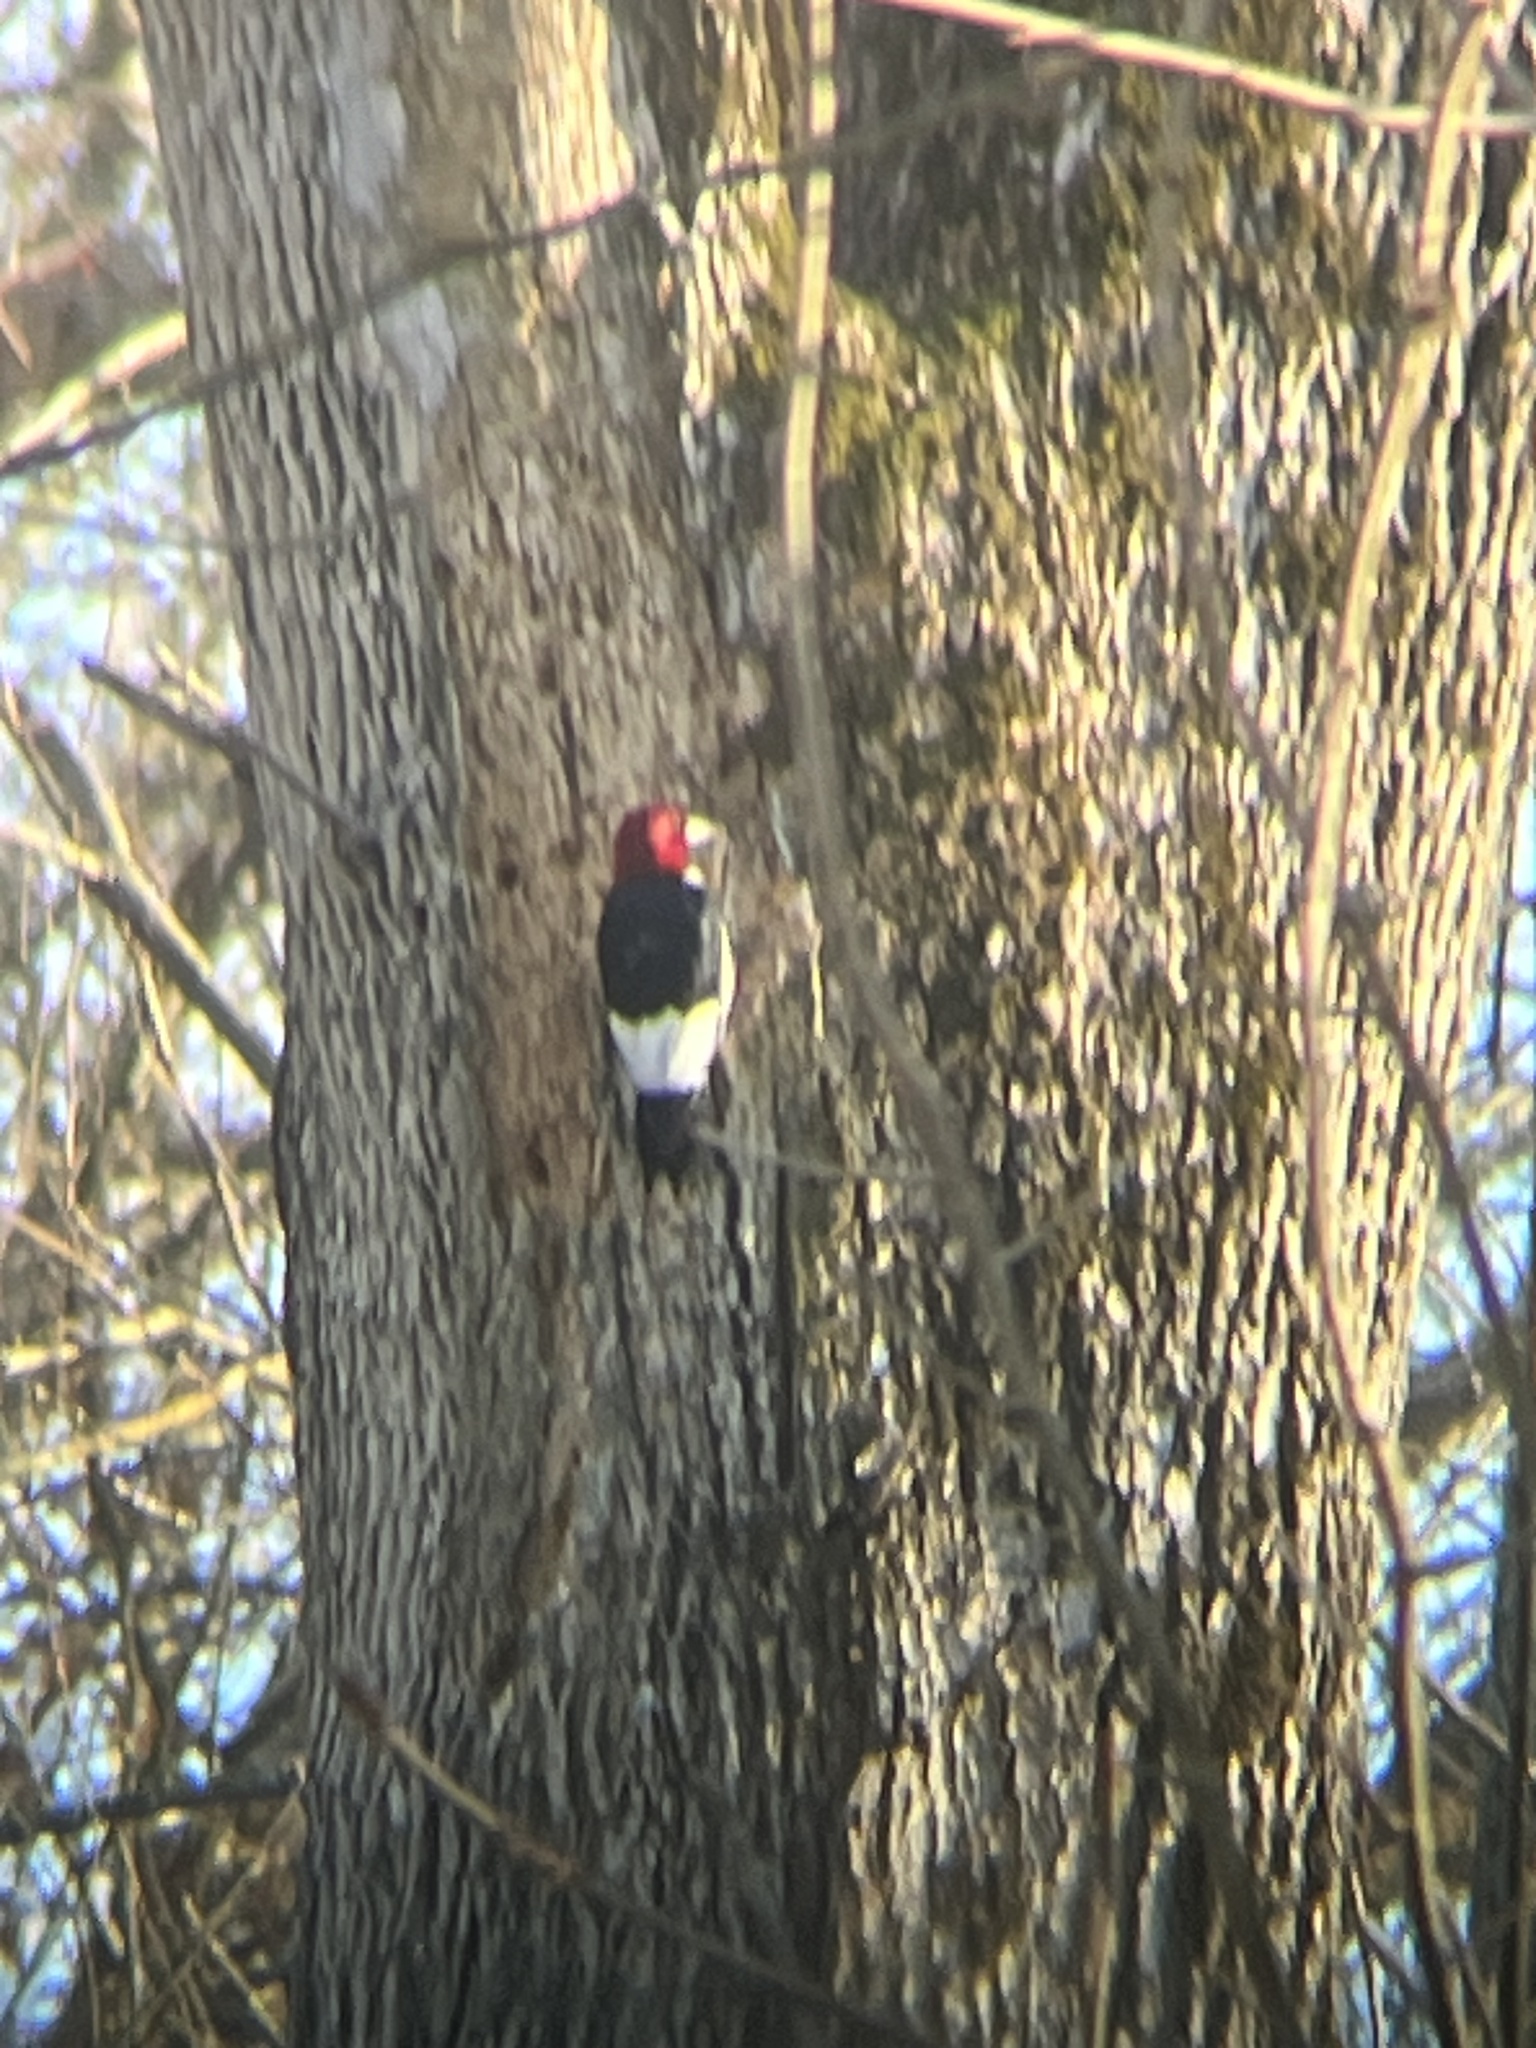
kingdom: Animalia
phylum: Chordata
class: Aves
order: Piciformes
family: Picidae
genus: Melanerpes
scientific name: Melanerpes erythrocephalus
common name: Red-headed woodpecker
